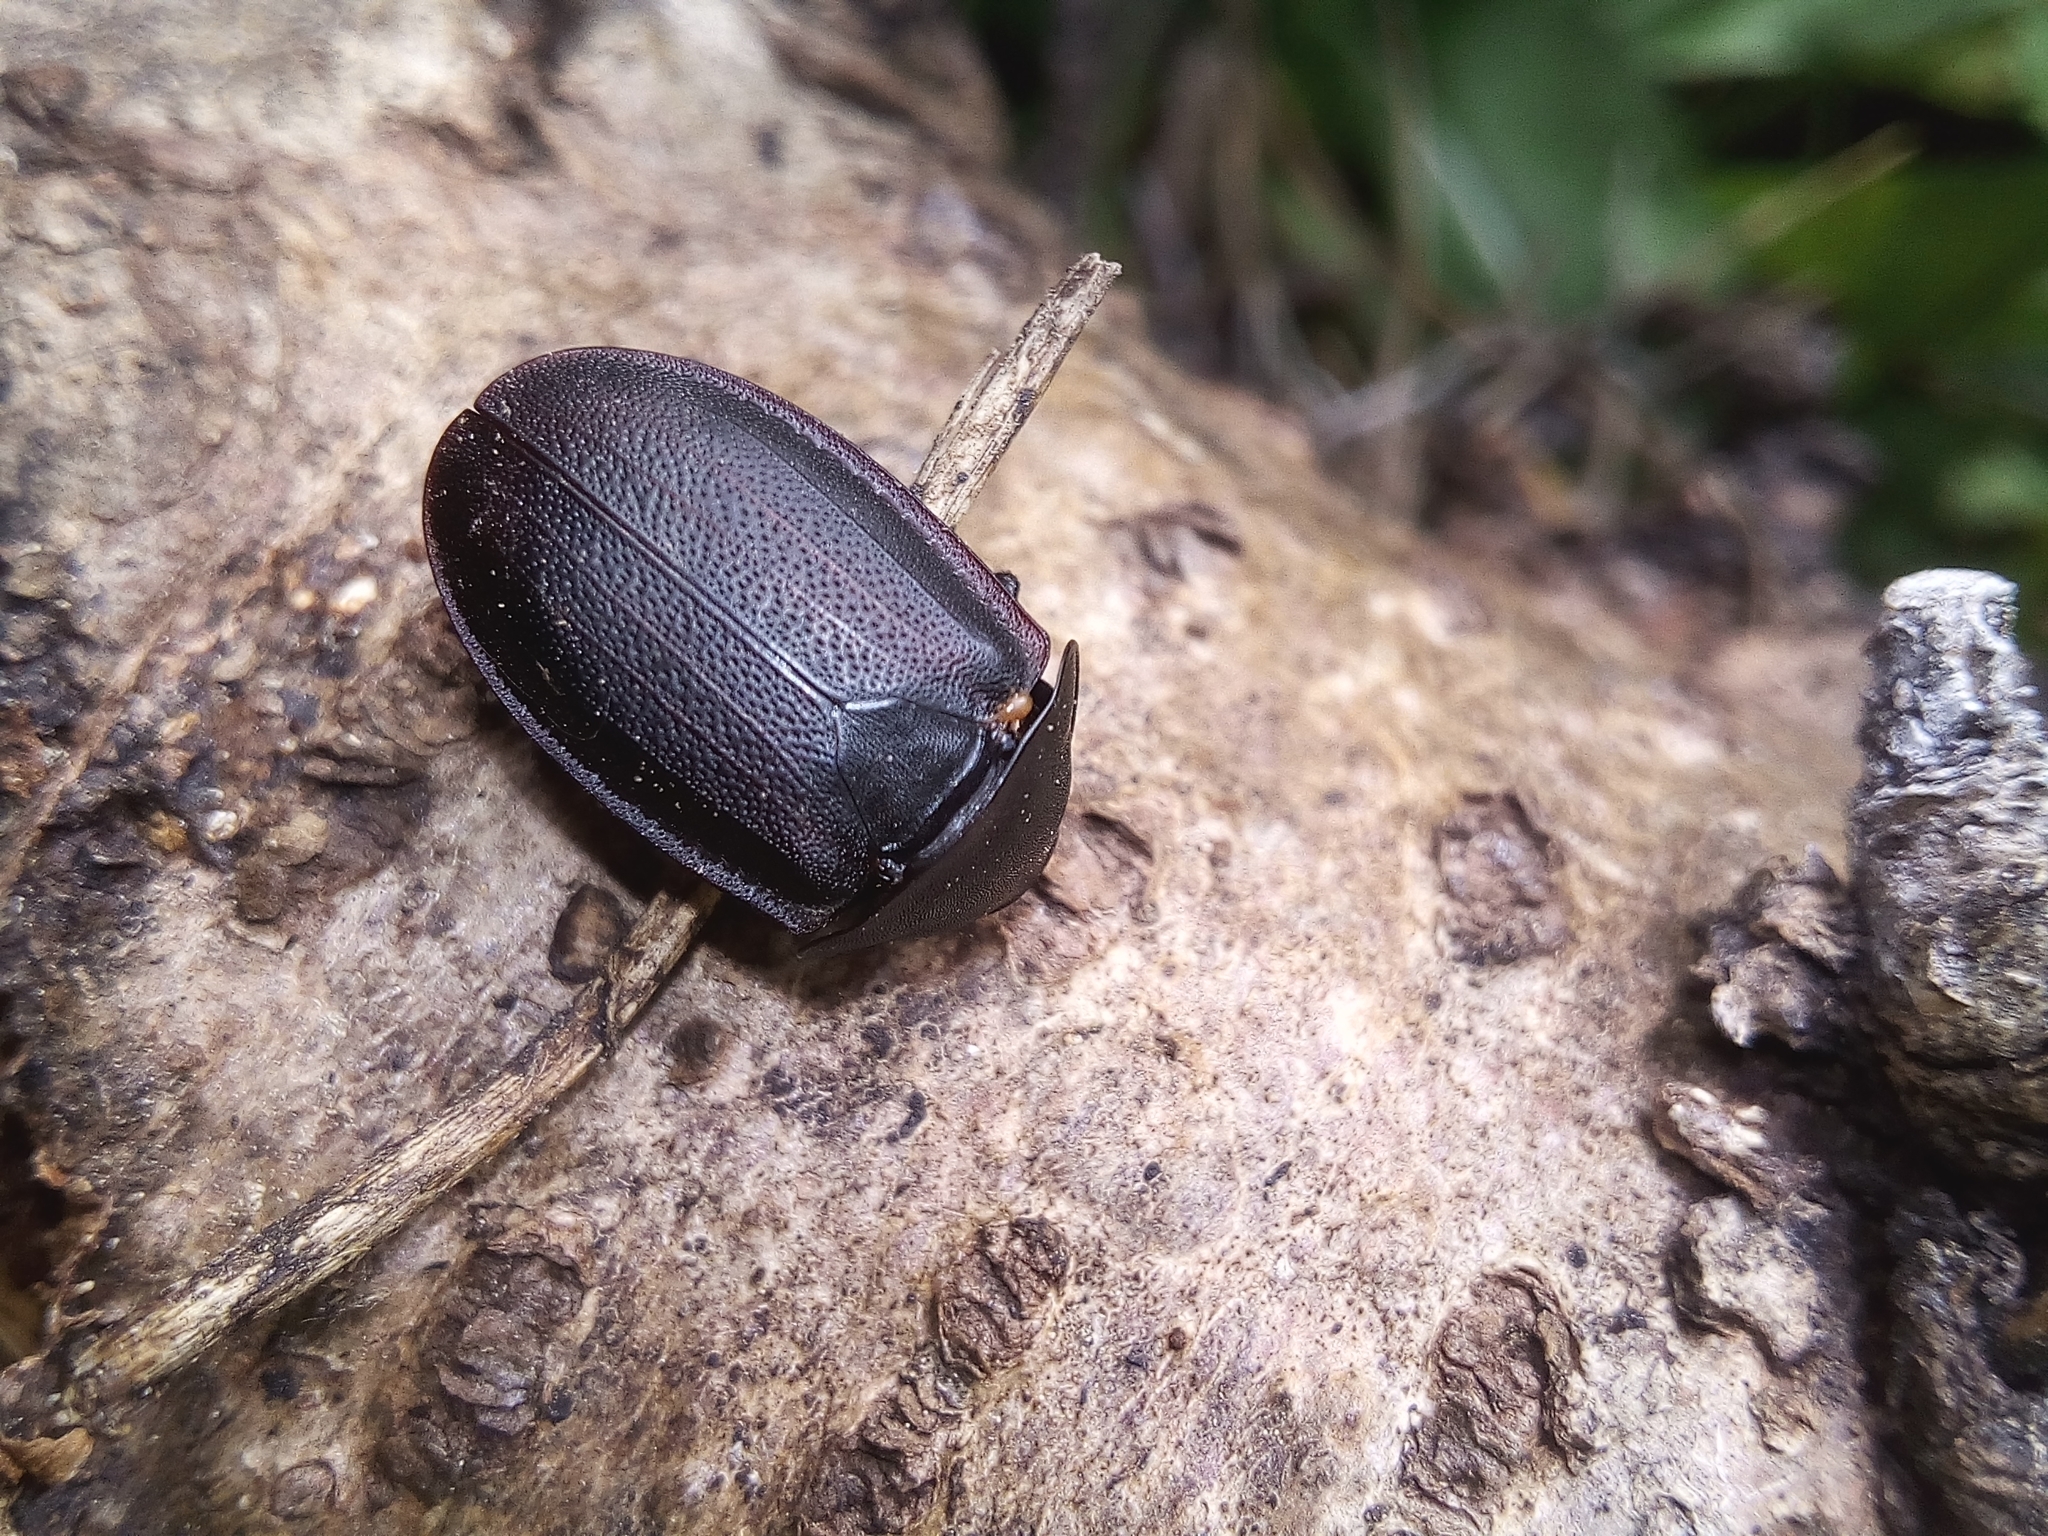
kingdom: Animalia
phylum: Arthropoda
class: Insecta
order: Coleoptera
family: Staphylinidae
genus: Silpha
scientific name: Silpha obscura
